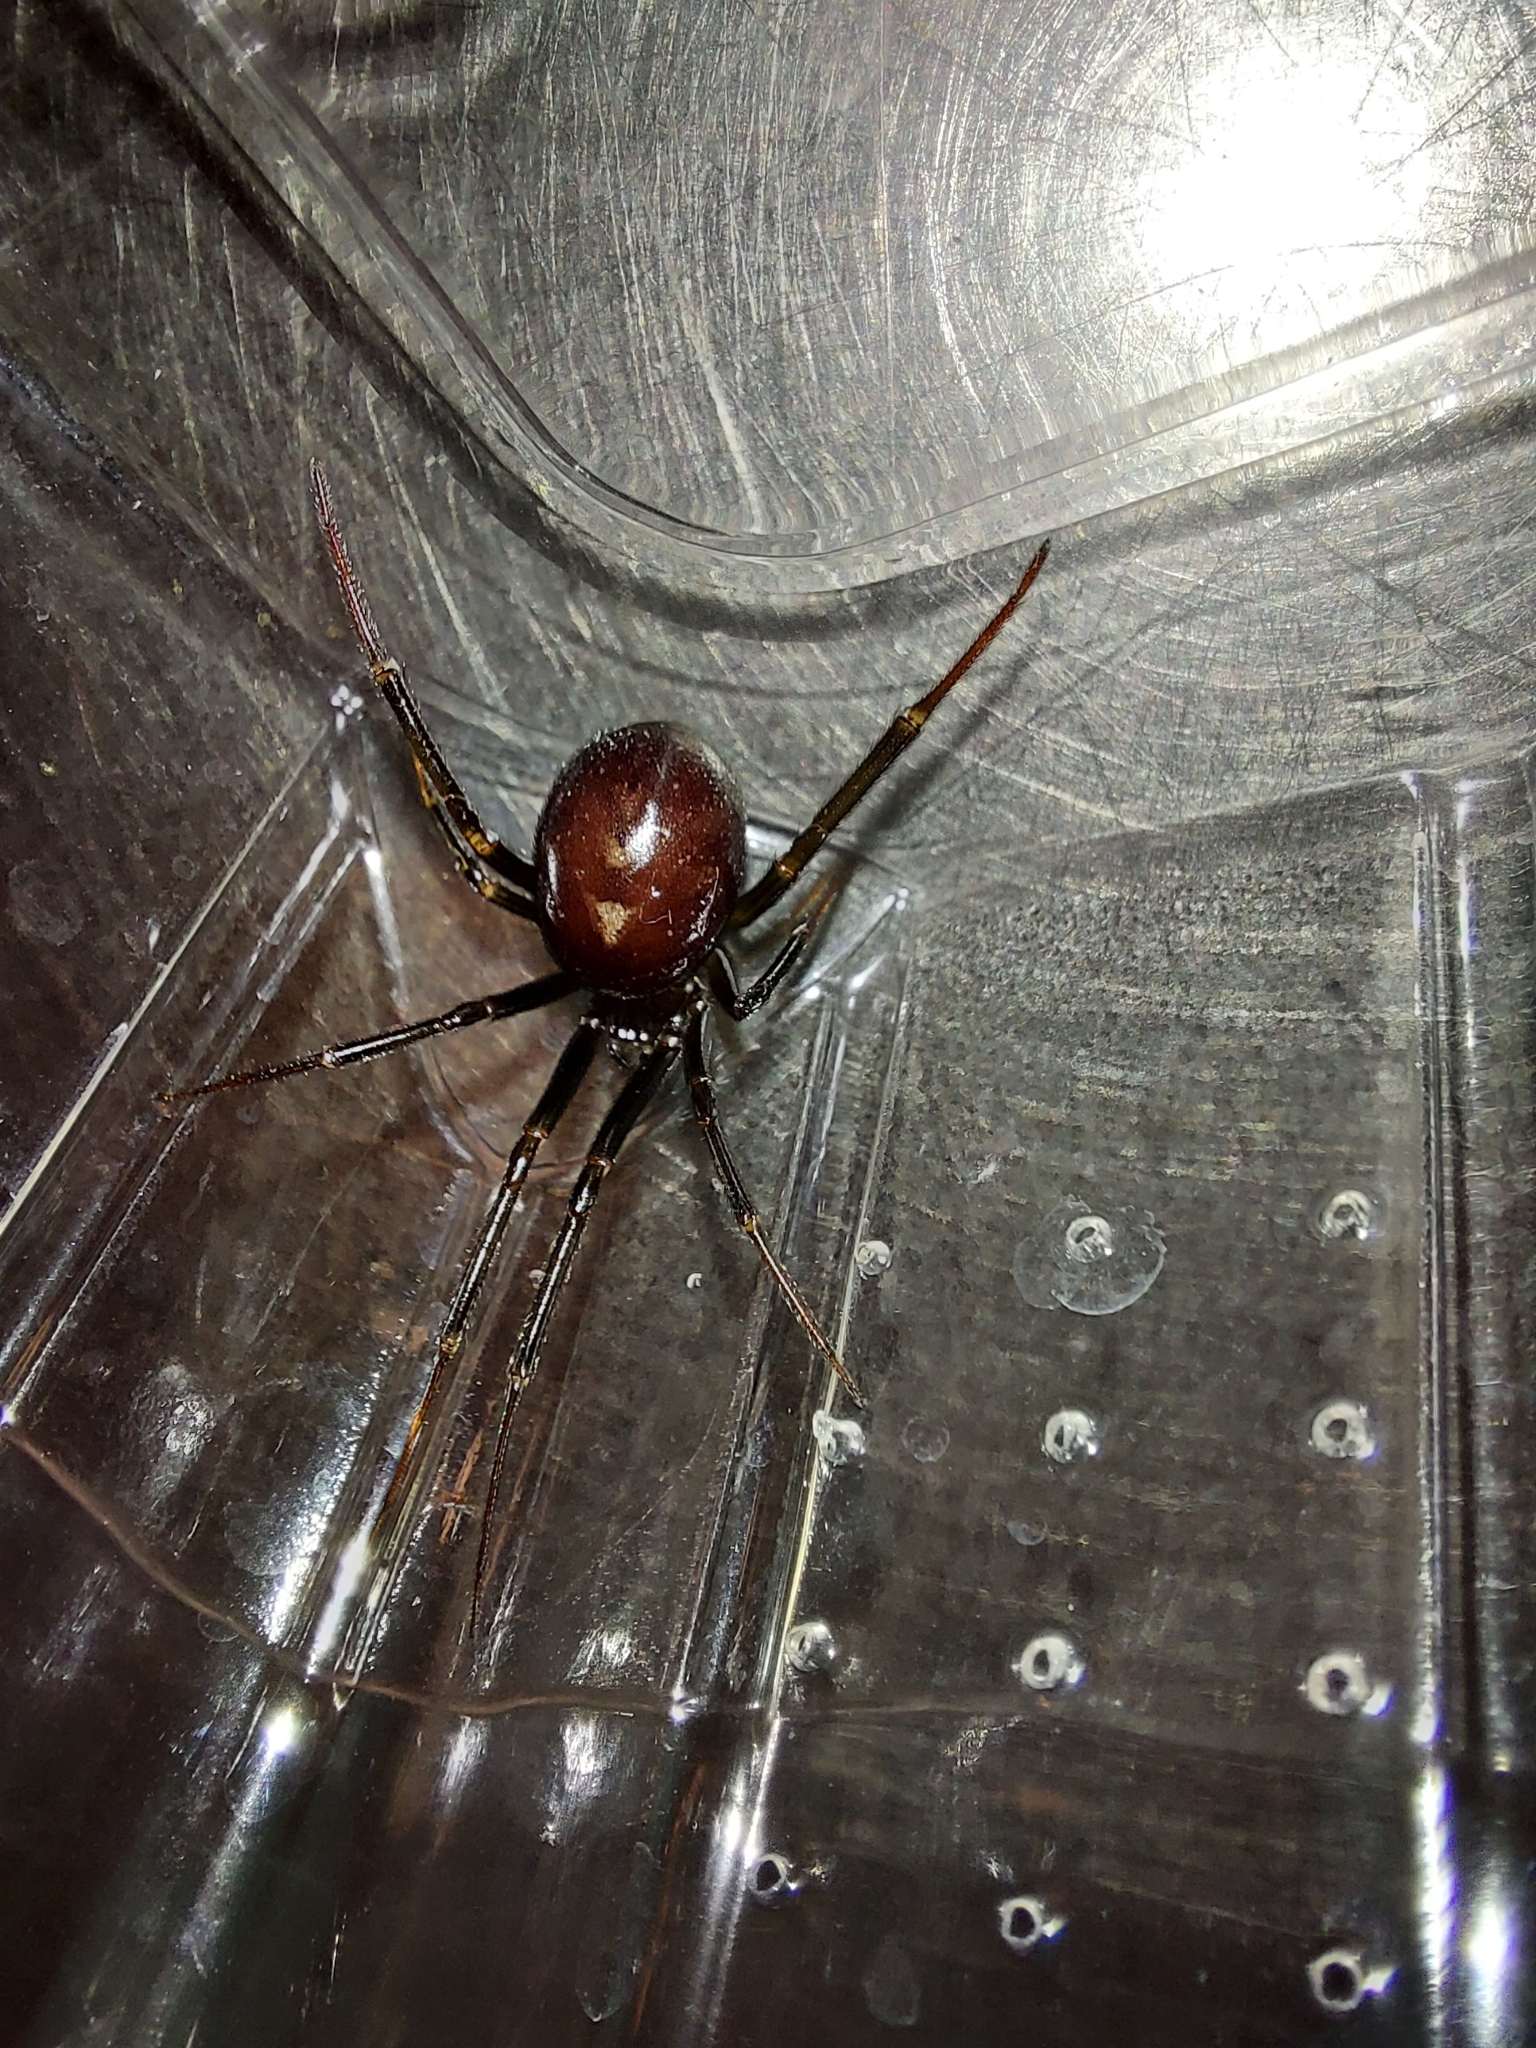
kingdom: Animalia
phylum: Arthropoda
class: Arachnida
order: Araneae
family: Theridiidae
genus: Steatoda
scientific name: Steatoda grossa
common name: False black widow
